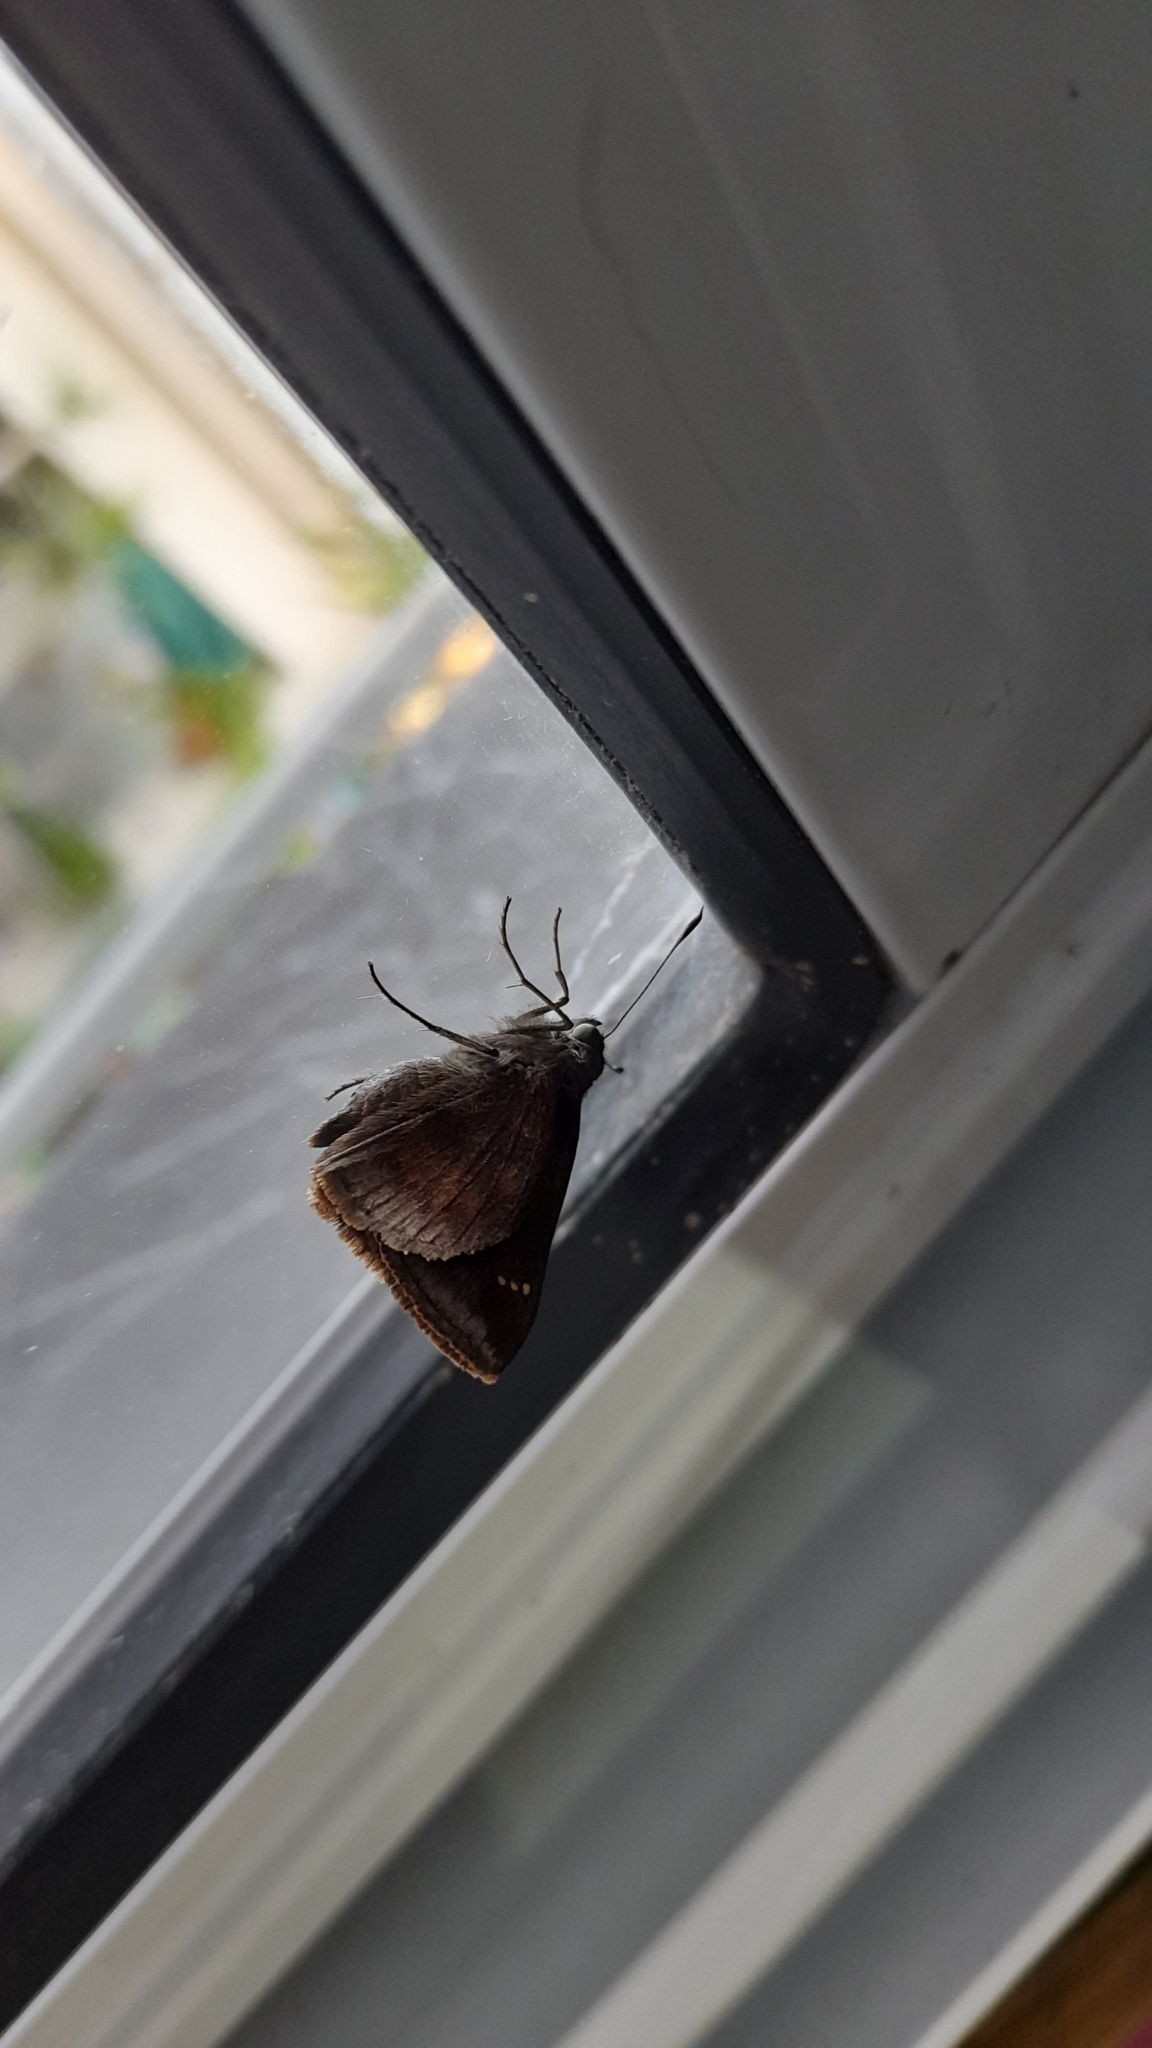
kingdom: Animalia
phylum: Arthropoda
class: Insecta
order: Lepidoptera
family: Hesperiidae
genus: Quinta
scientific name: Quinta cannae
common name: Canna skipper
